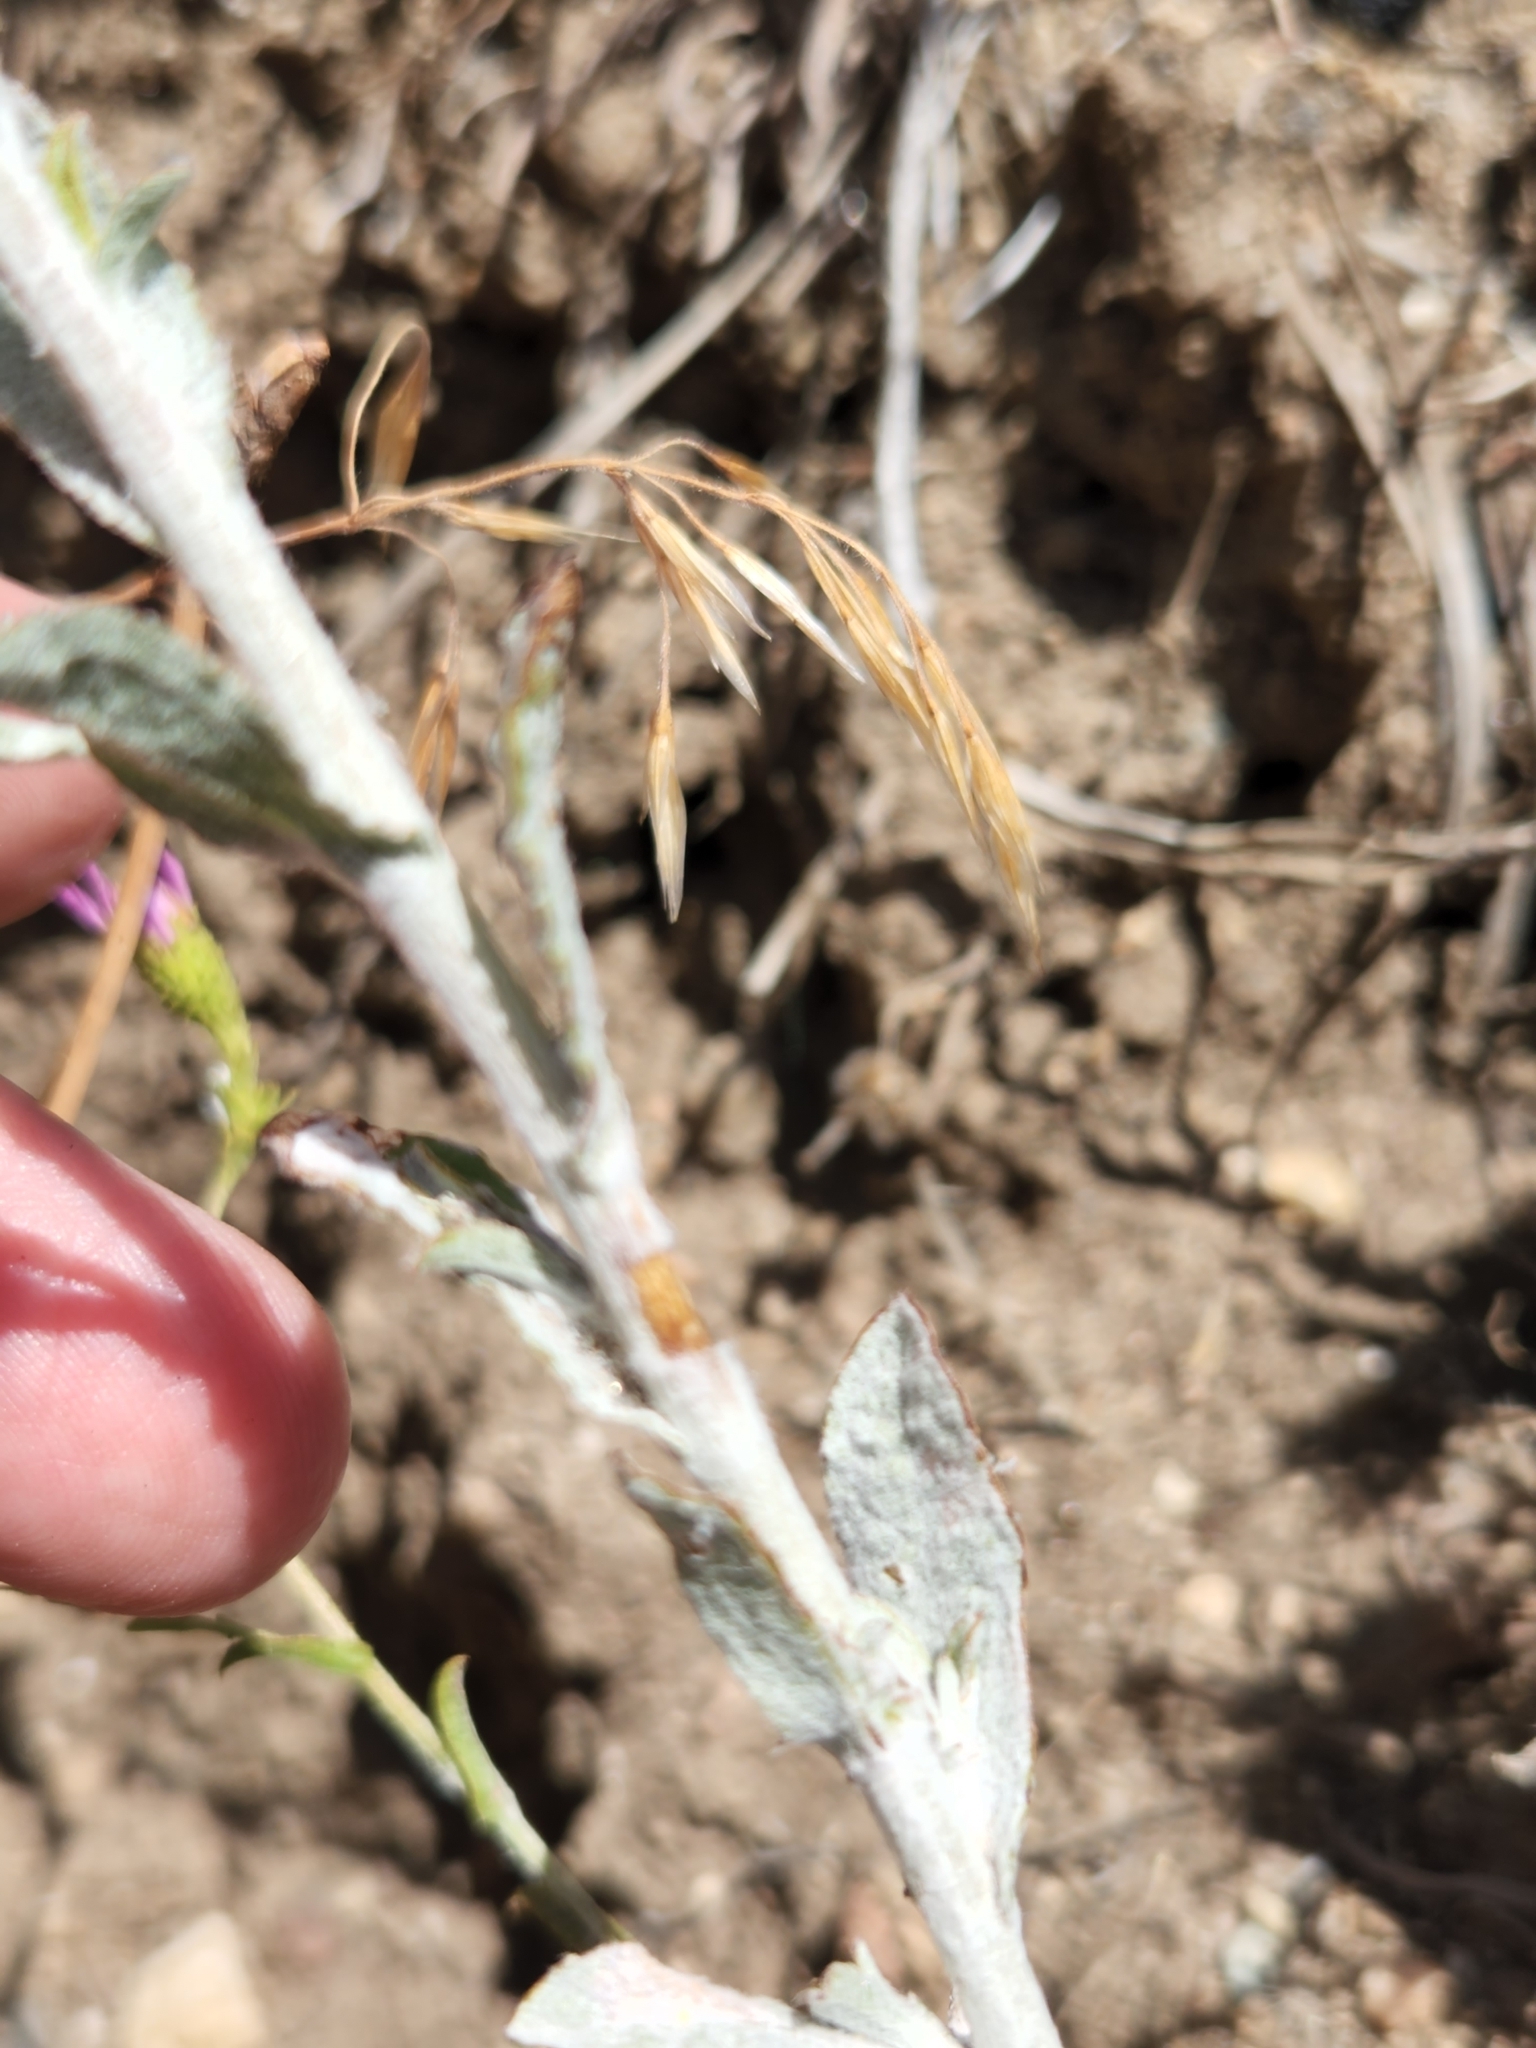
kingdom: Plantae
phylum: Tracheophyta
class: Magnoliopsida
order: Asterales
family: Asteraceae
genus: Corethrogyne
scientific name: Corethrogyne filaginifolia
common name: Sand-aster
